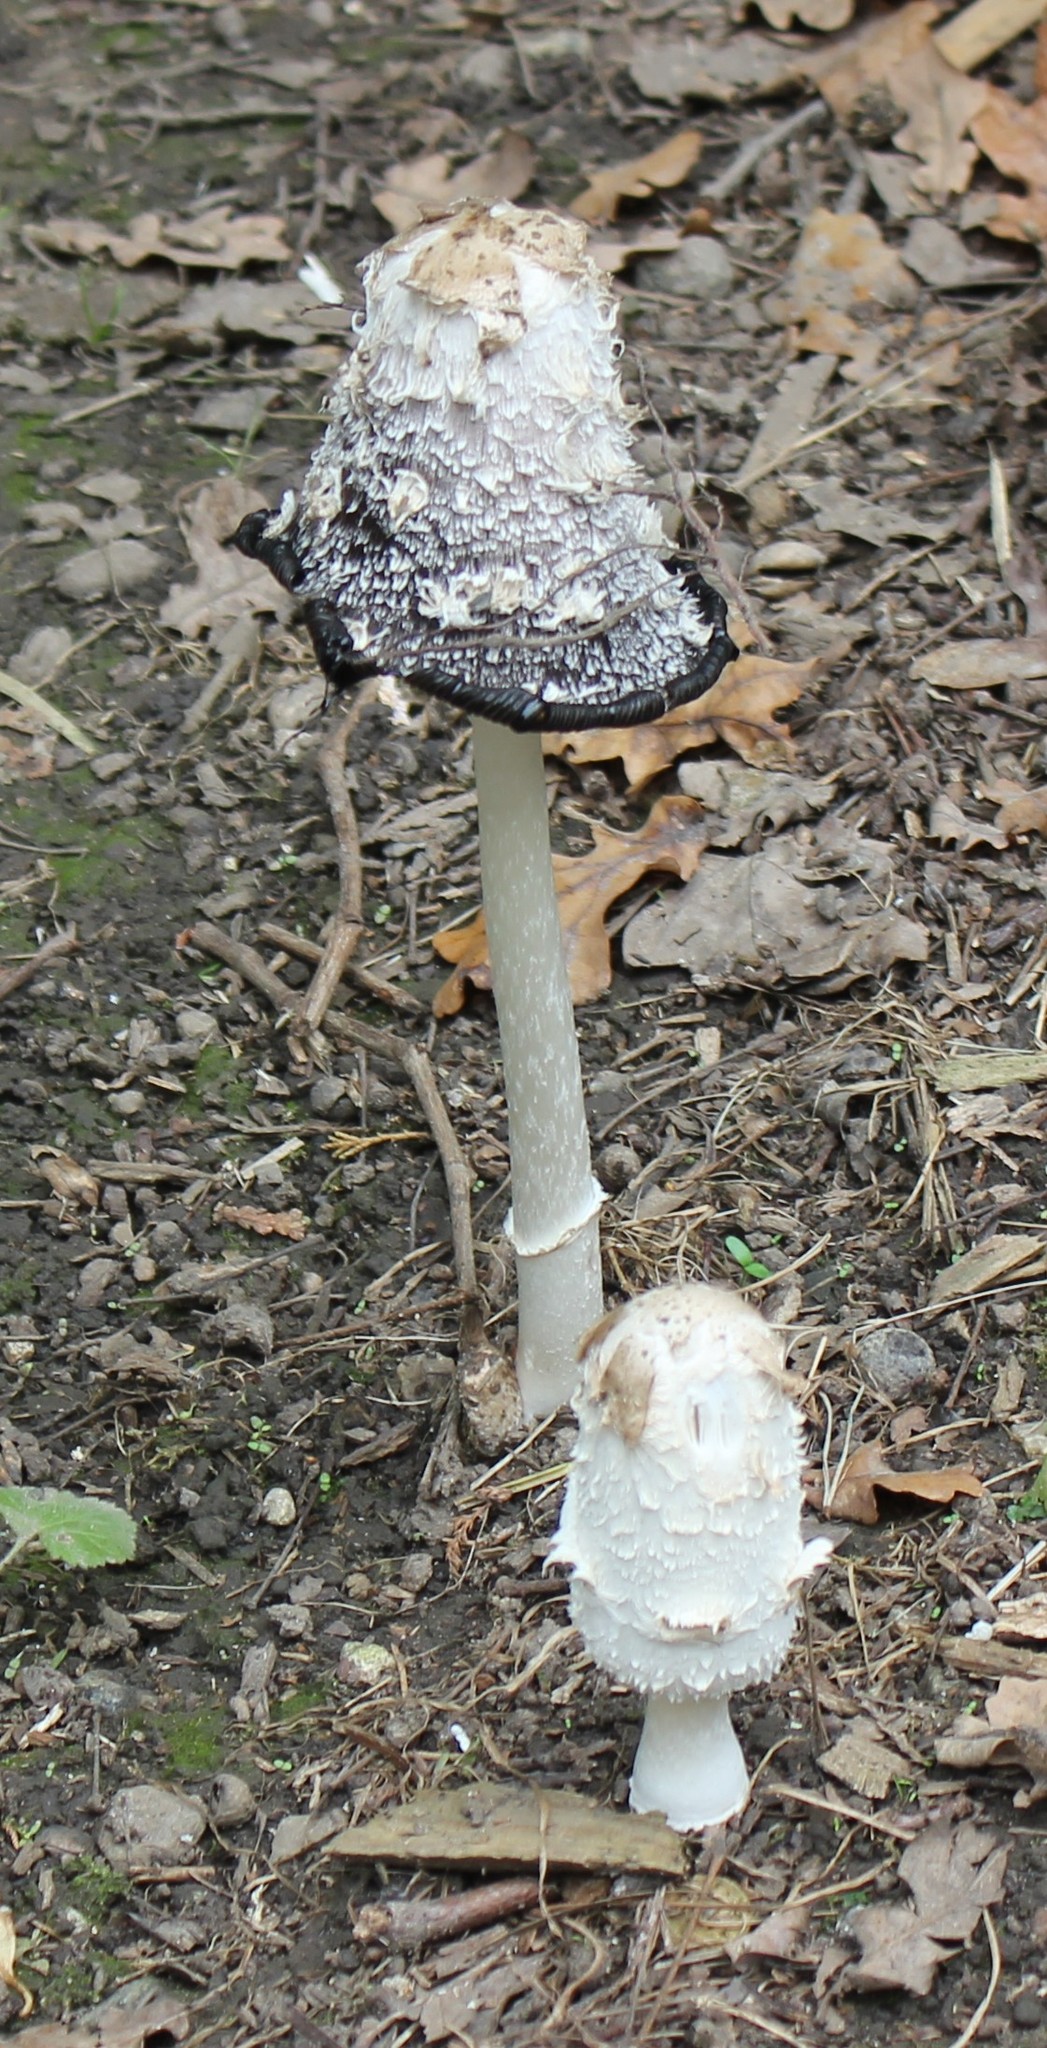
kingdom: Fungi
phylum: Basidiomycota
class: Agaricomycetes
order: Agaricales
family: Agaricaceae
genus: Coprinus
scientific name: Coprinus comatus
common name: Lawyer's wig
